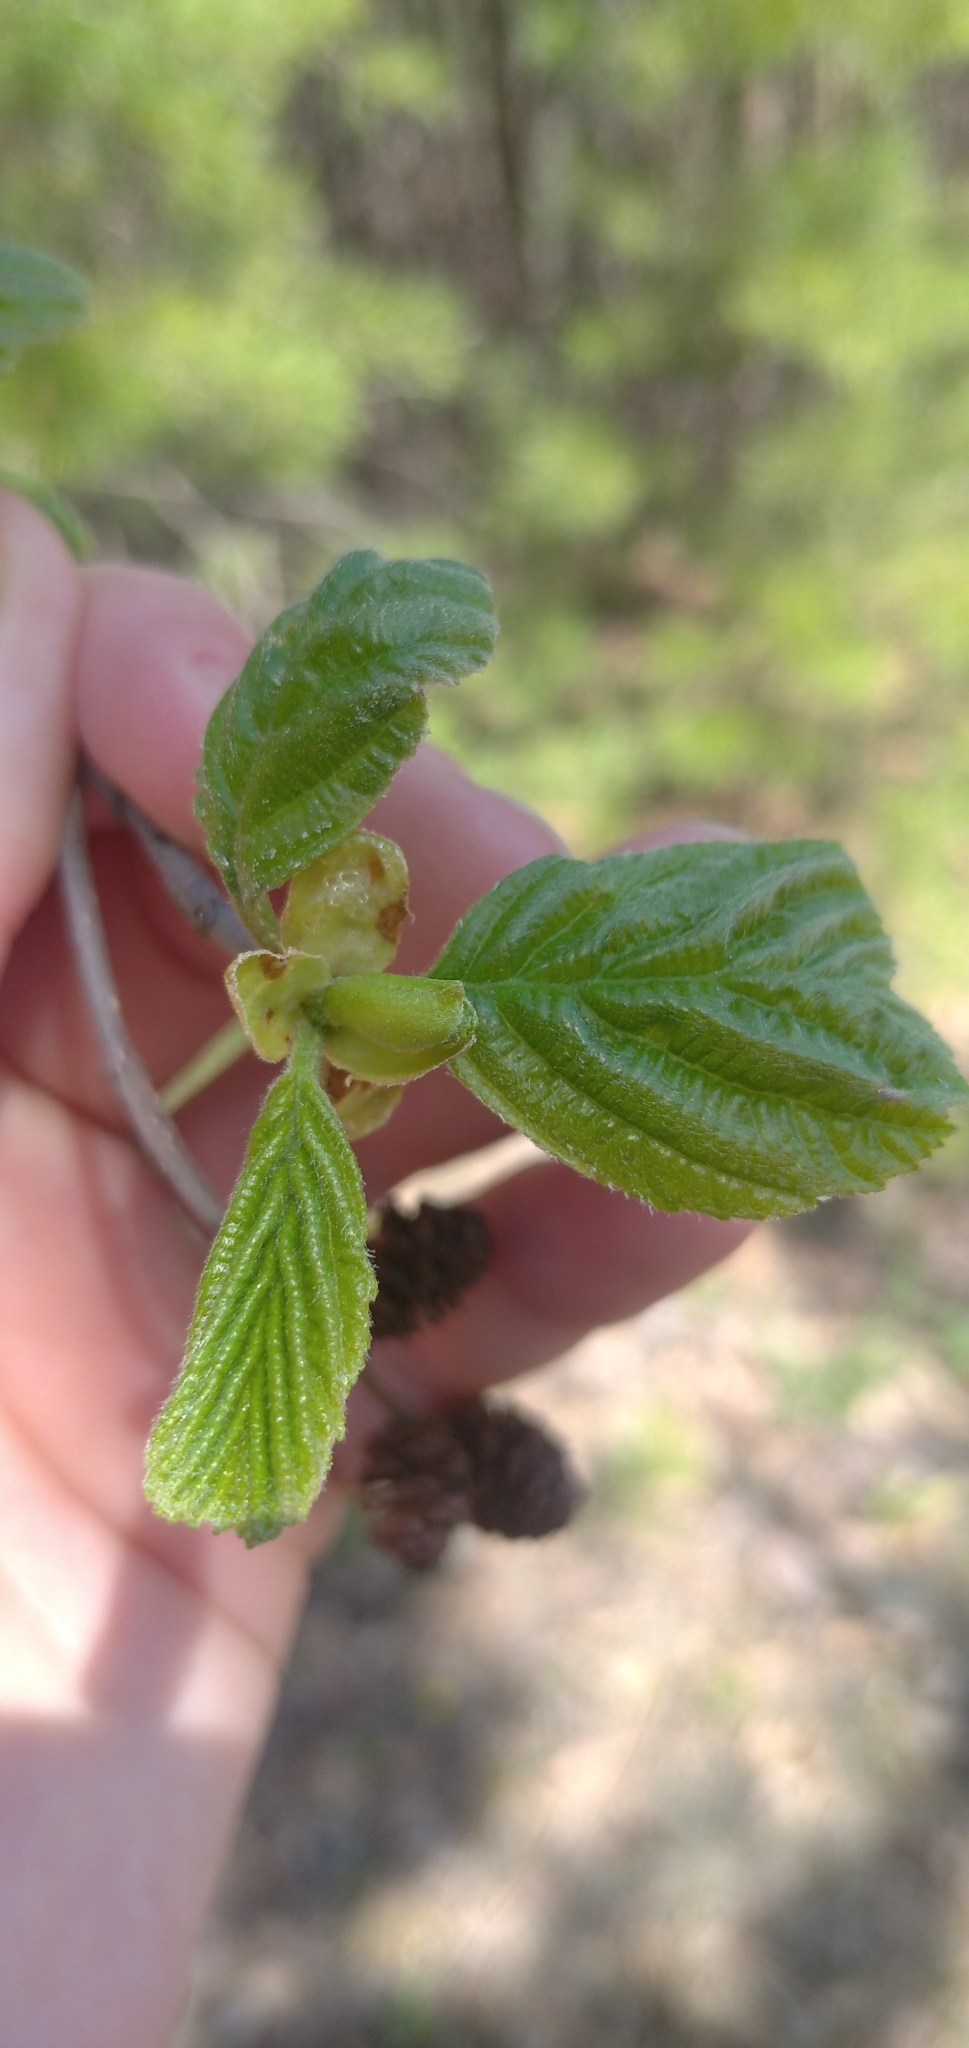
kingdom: Plantae
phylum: Tracheophyta
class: Magnoliopsida
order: Fagales
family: Betulaceae
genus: Alnus
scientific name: Alnus incana
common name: Grey alder
